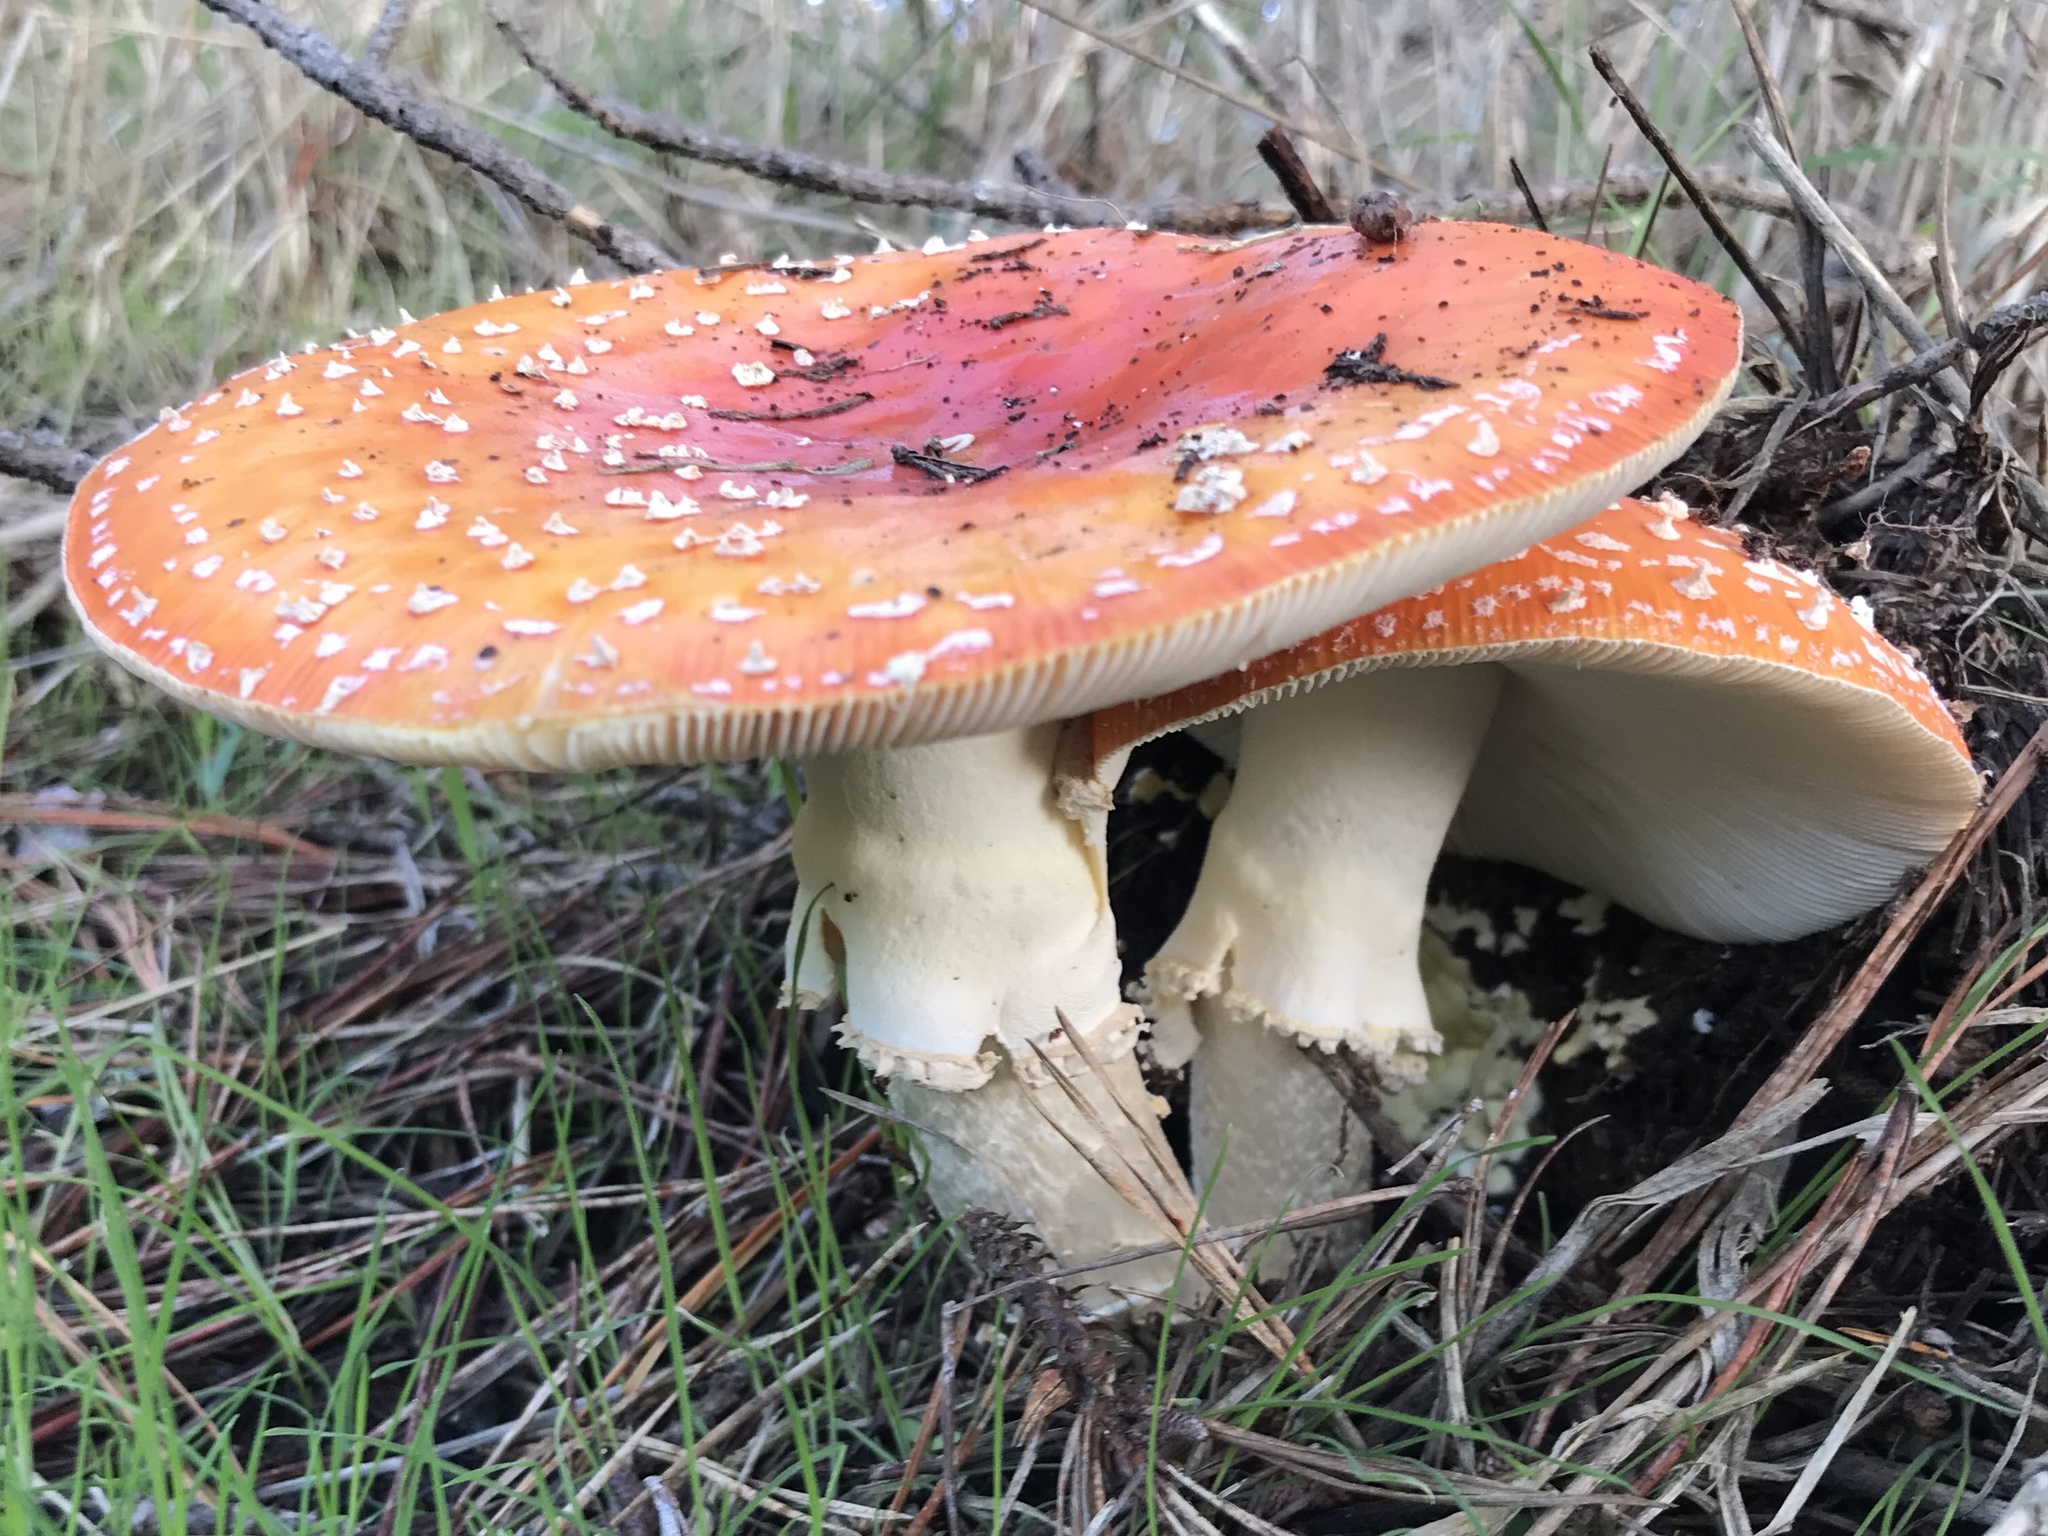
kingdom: Fungi
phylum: Basidiomycota
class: Agaricomycetes
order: Agaricales
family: Amanitaceae
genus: Amanita
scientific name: Amanita muscaria
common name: Fly agaric
